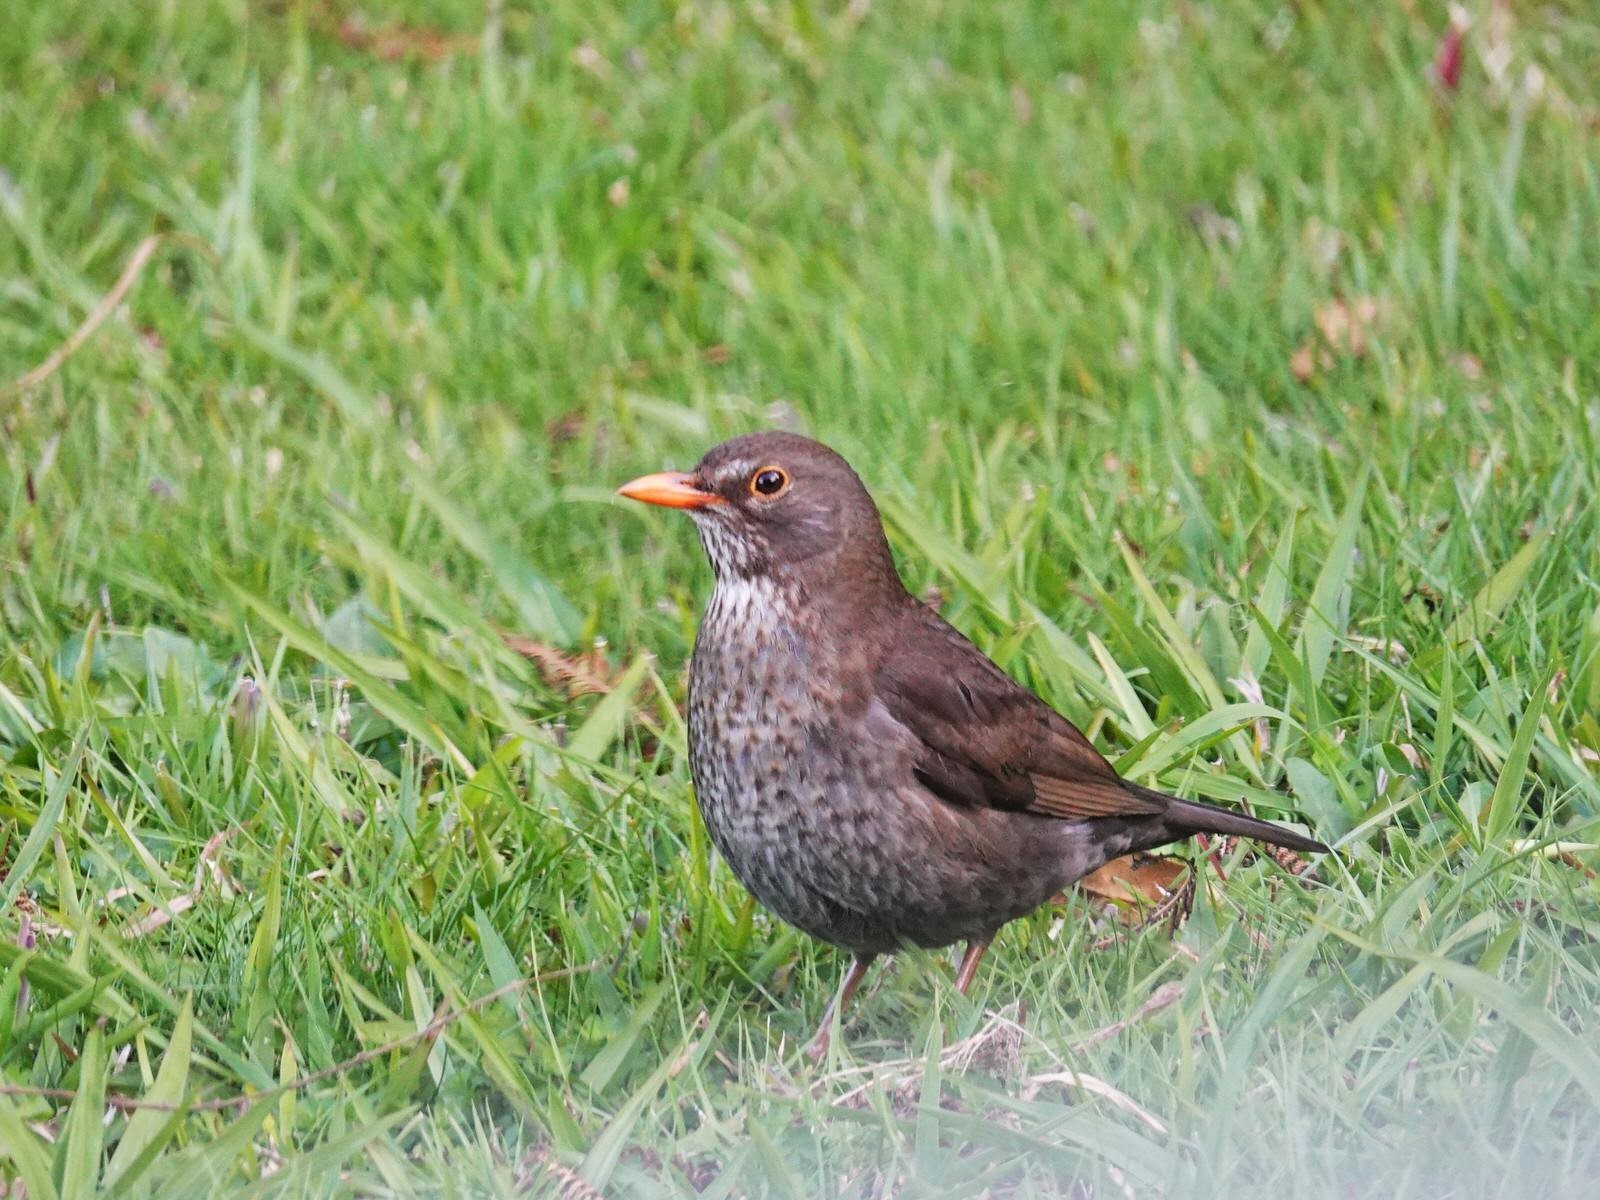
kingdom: Animalia
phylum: Chordata
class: Aves
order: Passeriformes
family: Turdidae
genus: Turdus
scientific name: Turdus merula
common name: Common blackbird
